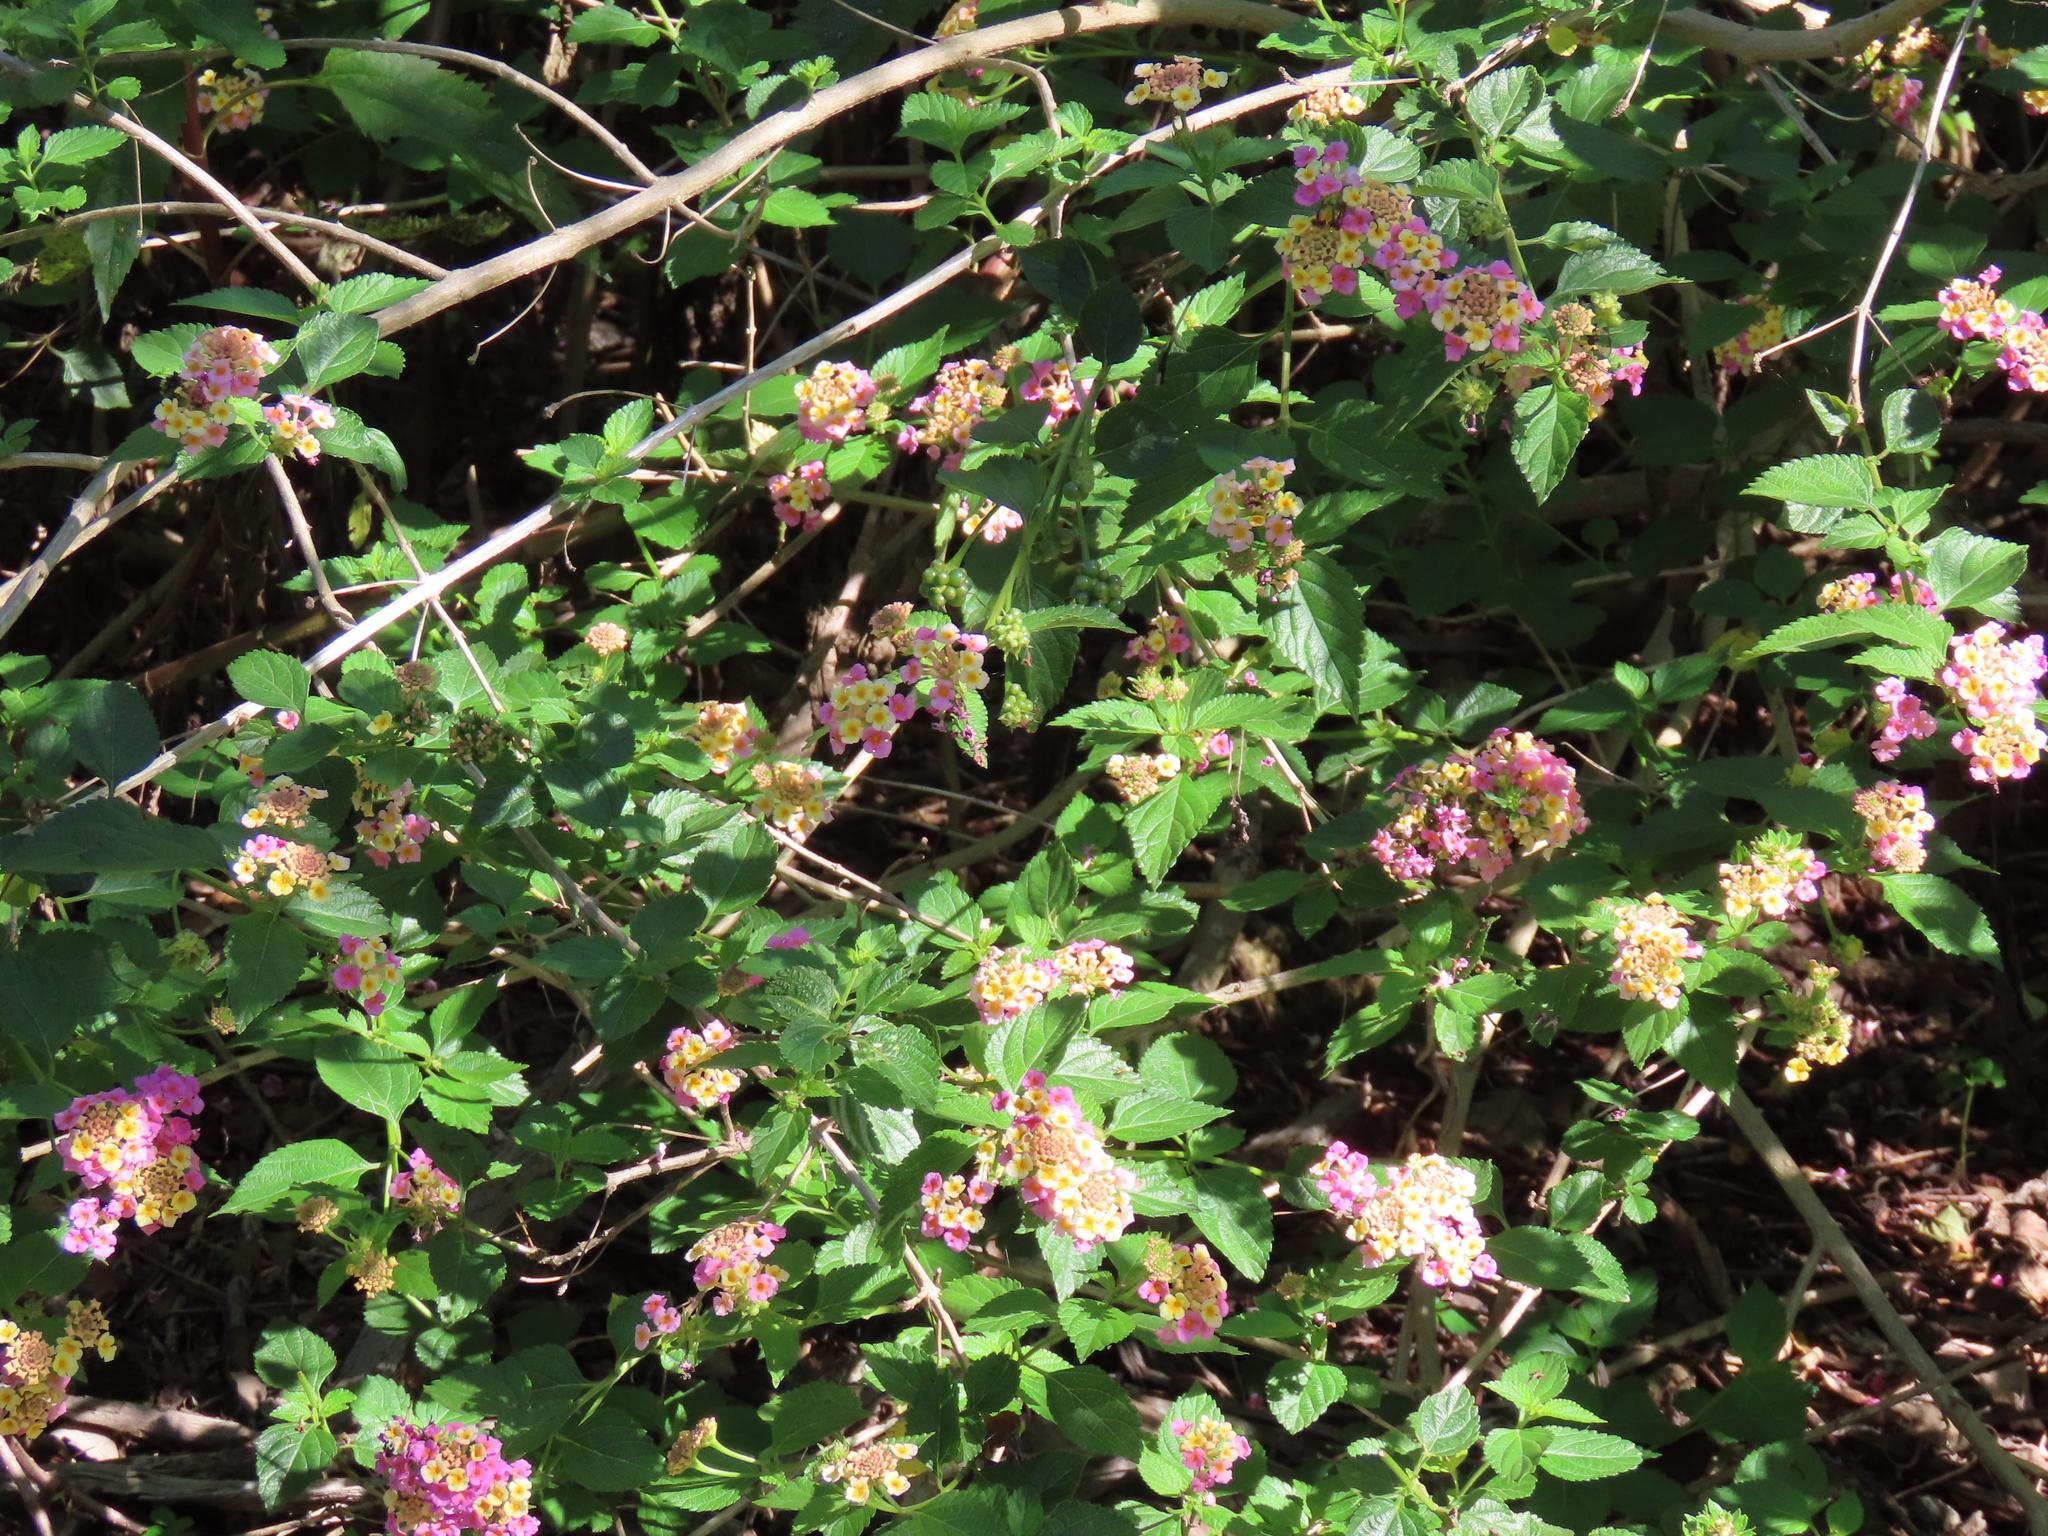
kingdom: Plantae
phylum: Tracheophyta
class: Magnoliopsida
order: Lamiales
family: Verbenaceae
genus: Lantana
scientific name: Lantana strigocamara
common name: Lantana
